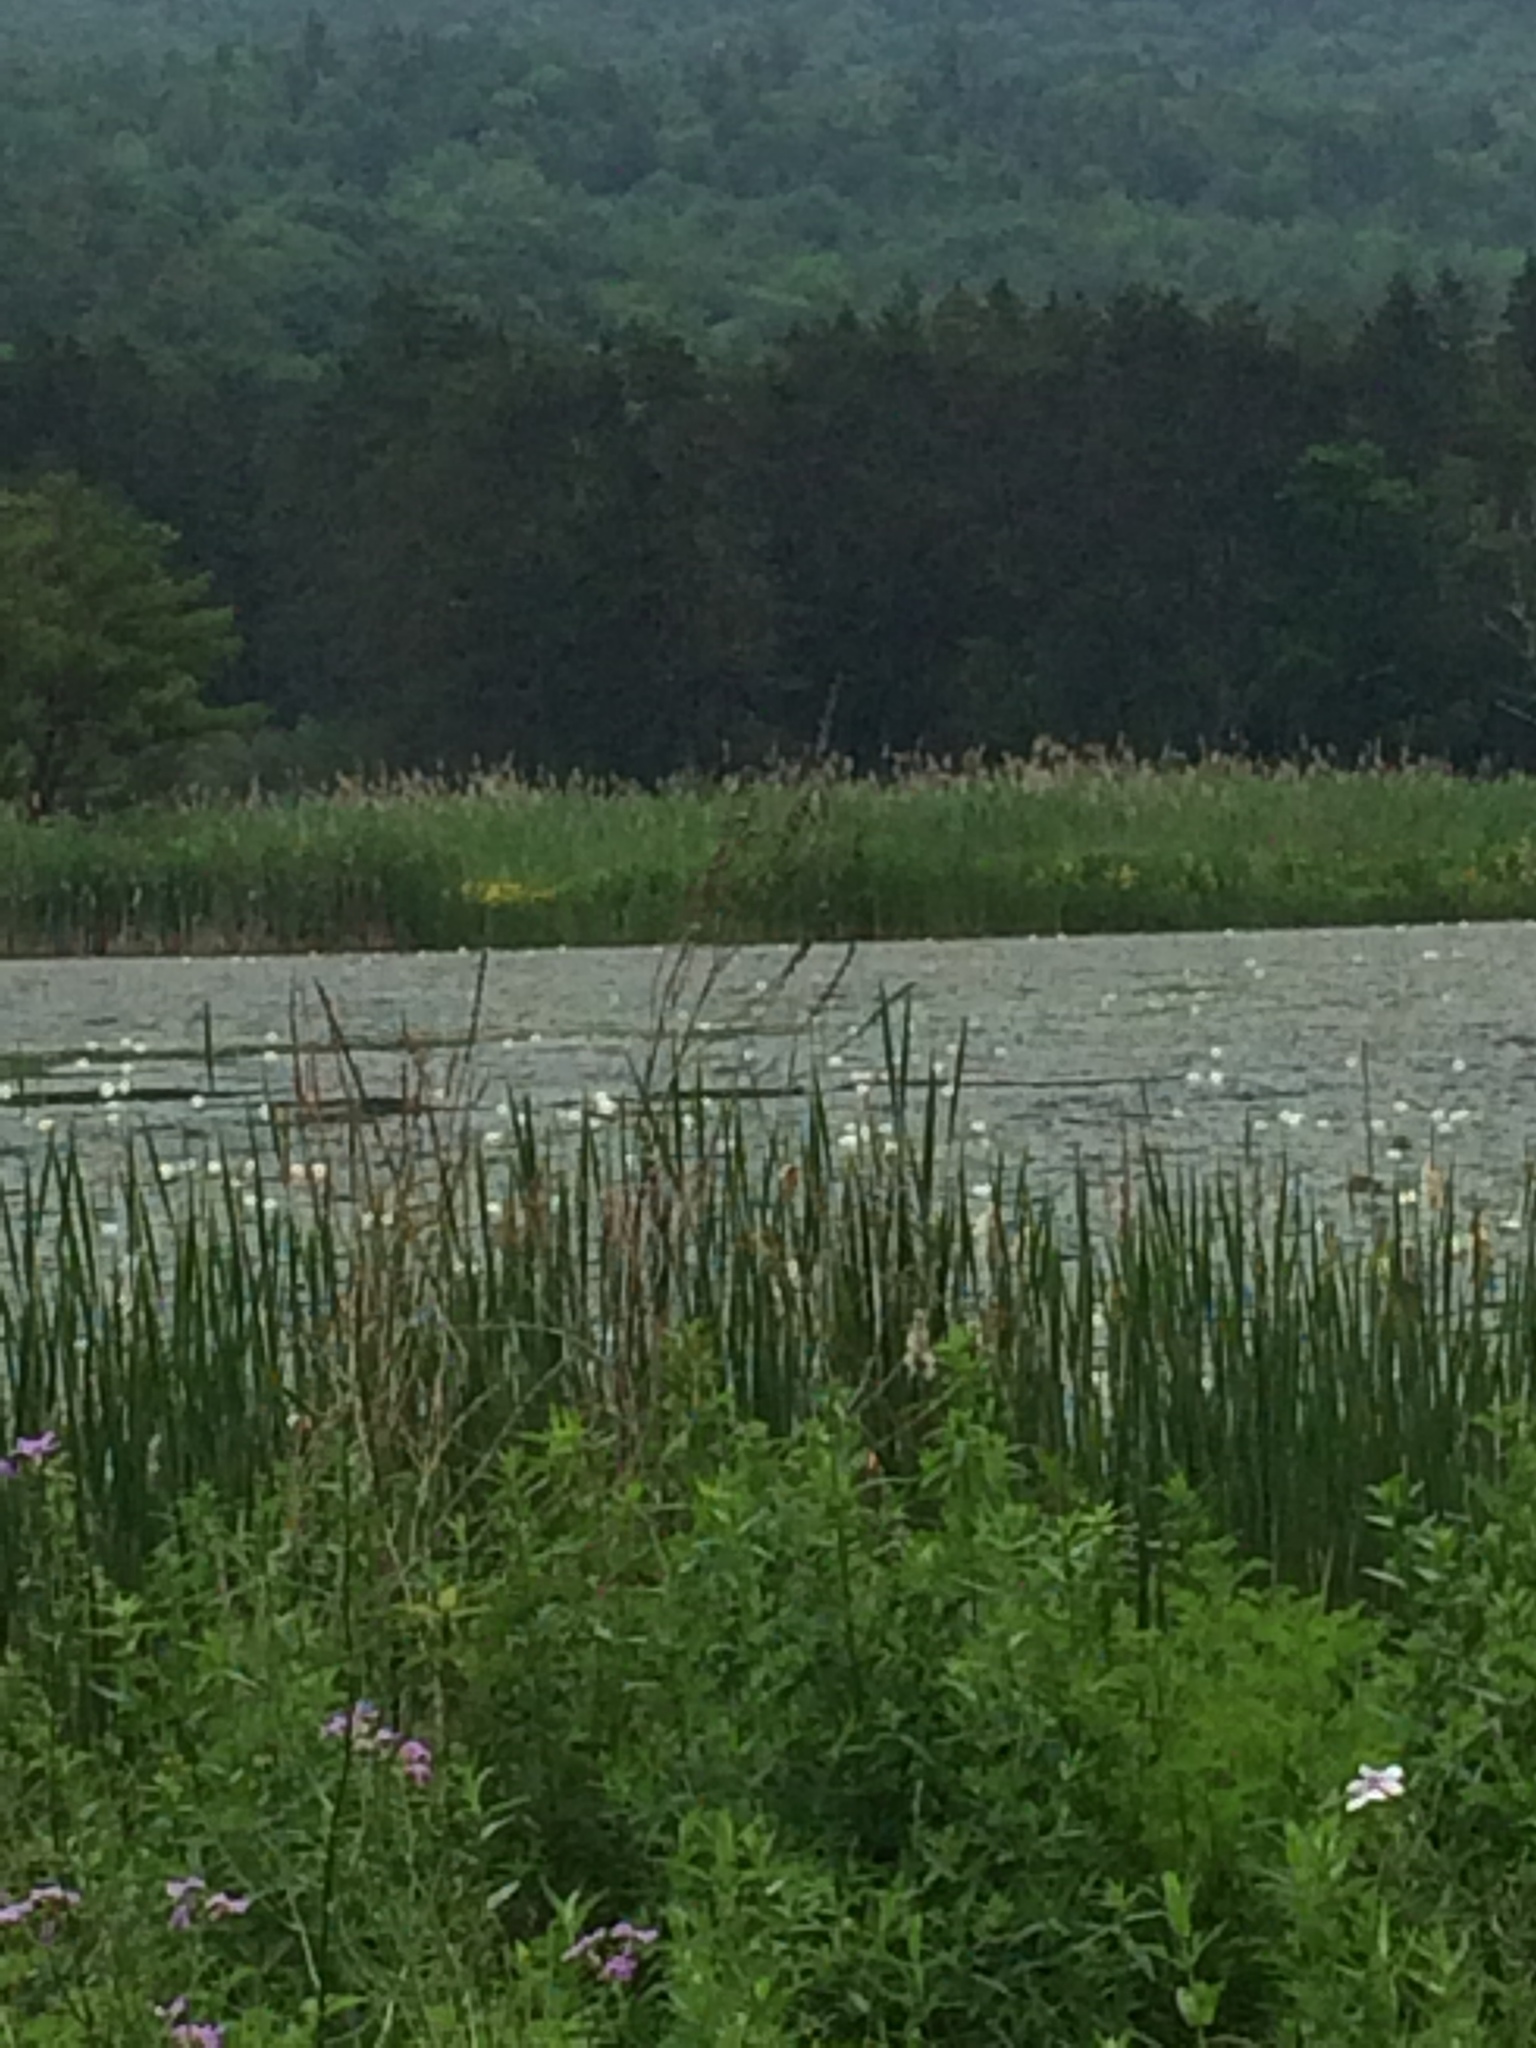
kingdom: Plantae
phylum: Tracheophyta
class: Liliopsida
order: Poales
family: Poaceae
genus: Phragmites
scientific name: Phragmites australis
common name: Common reed
